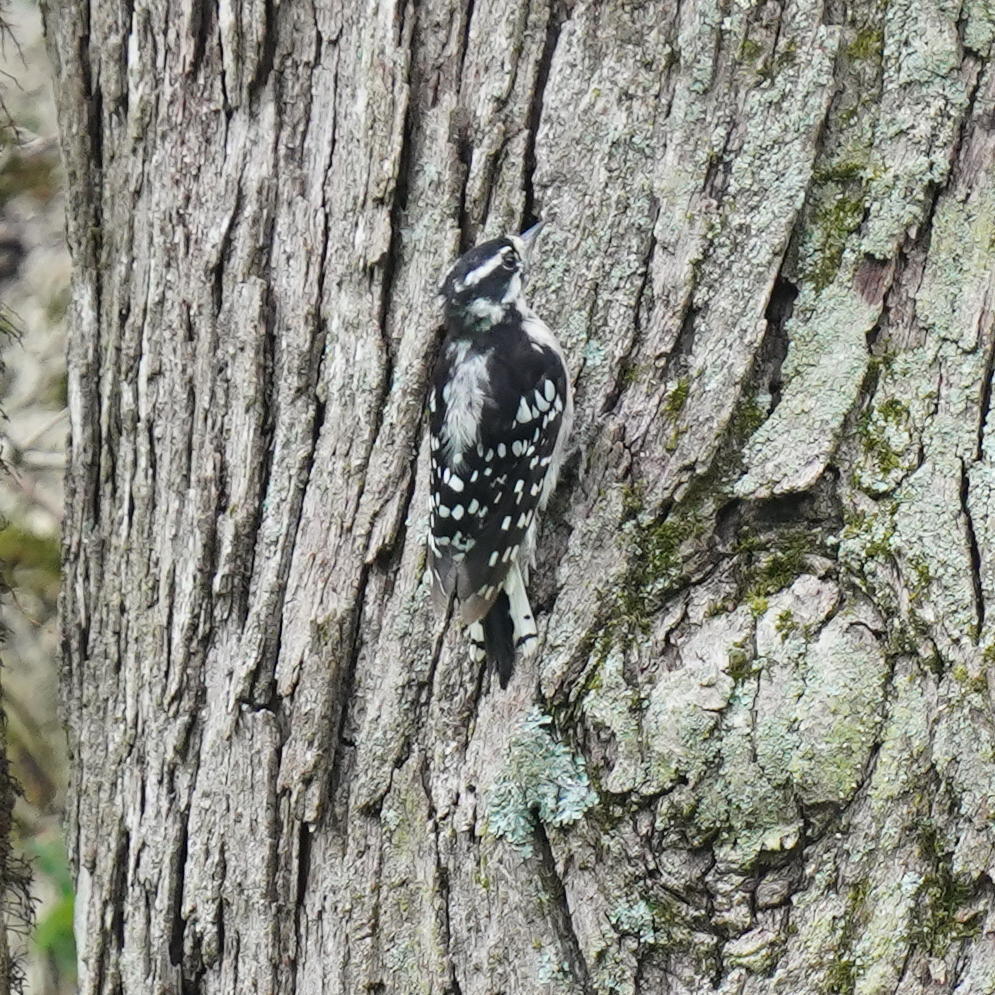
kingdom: Animalia
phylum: Chordata
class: Aves
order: Piciformes
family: Picidae
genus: Dryobates
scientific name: Dryobates pubescens
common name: Downy woodpecker
